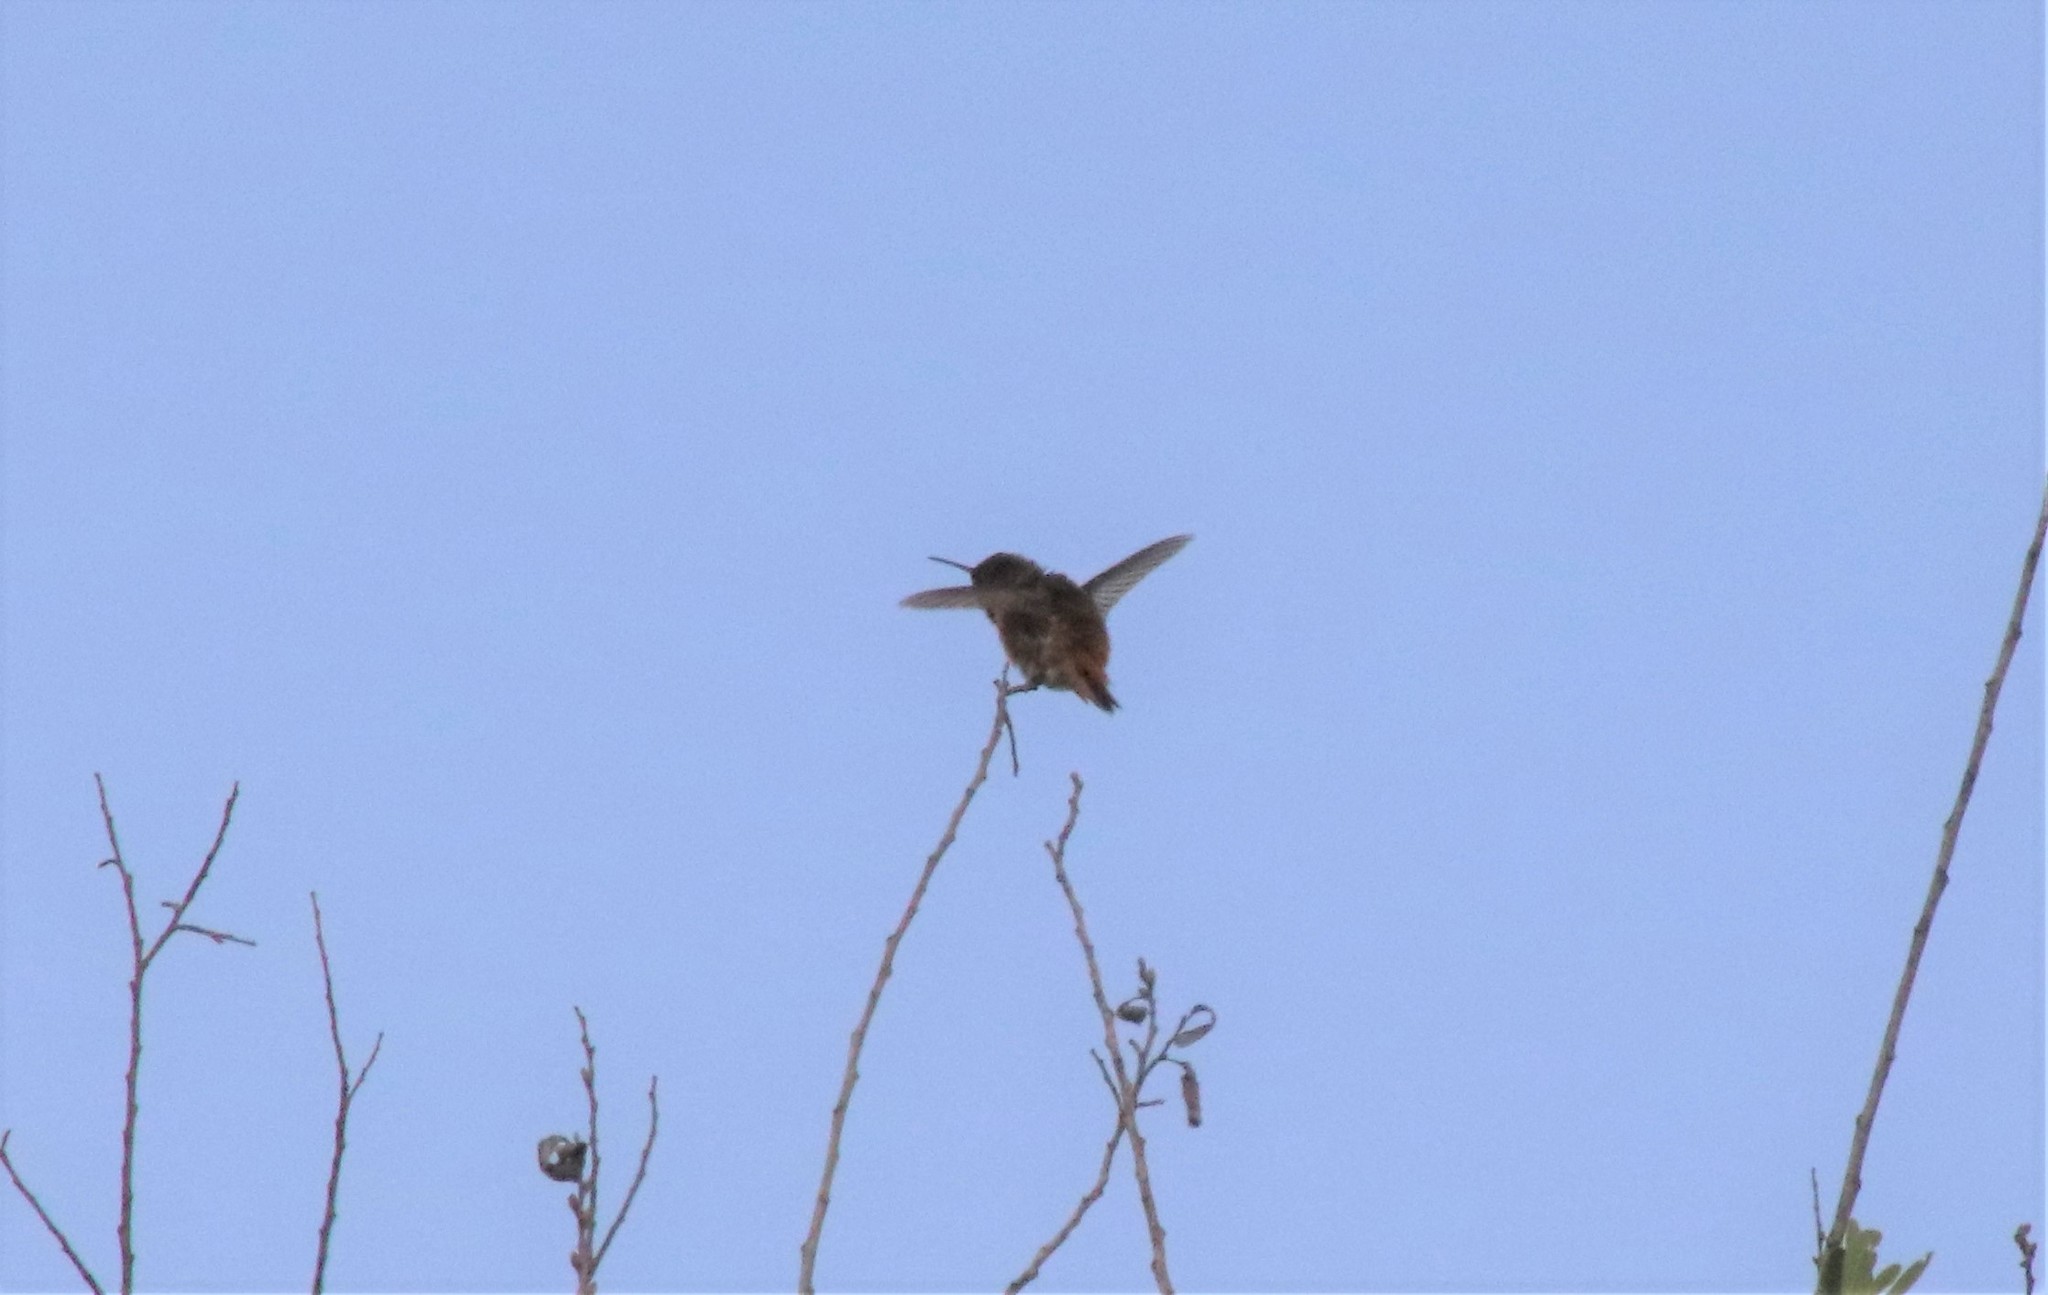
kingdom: Animalia
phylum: Chordata
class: Aves
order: Apodiformes
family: Trochilidae
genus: Selasphorus
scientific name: Selasphorus
